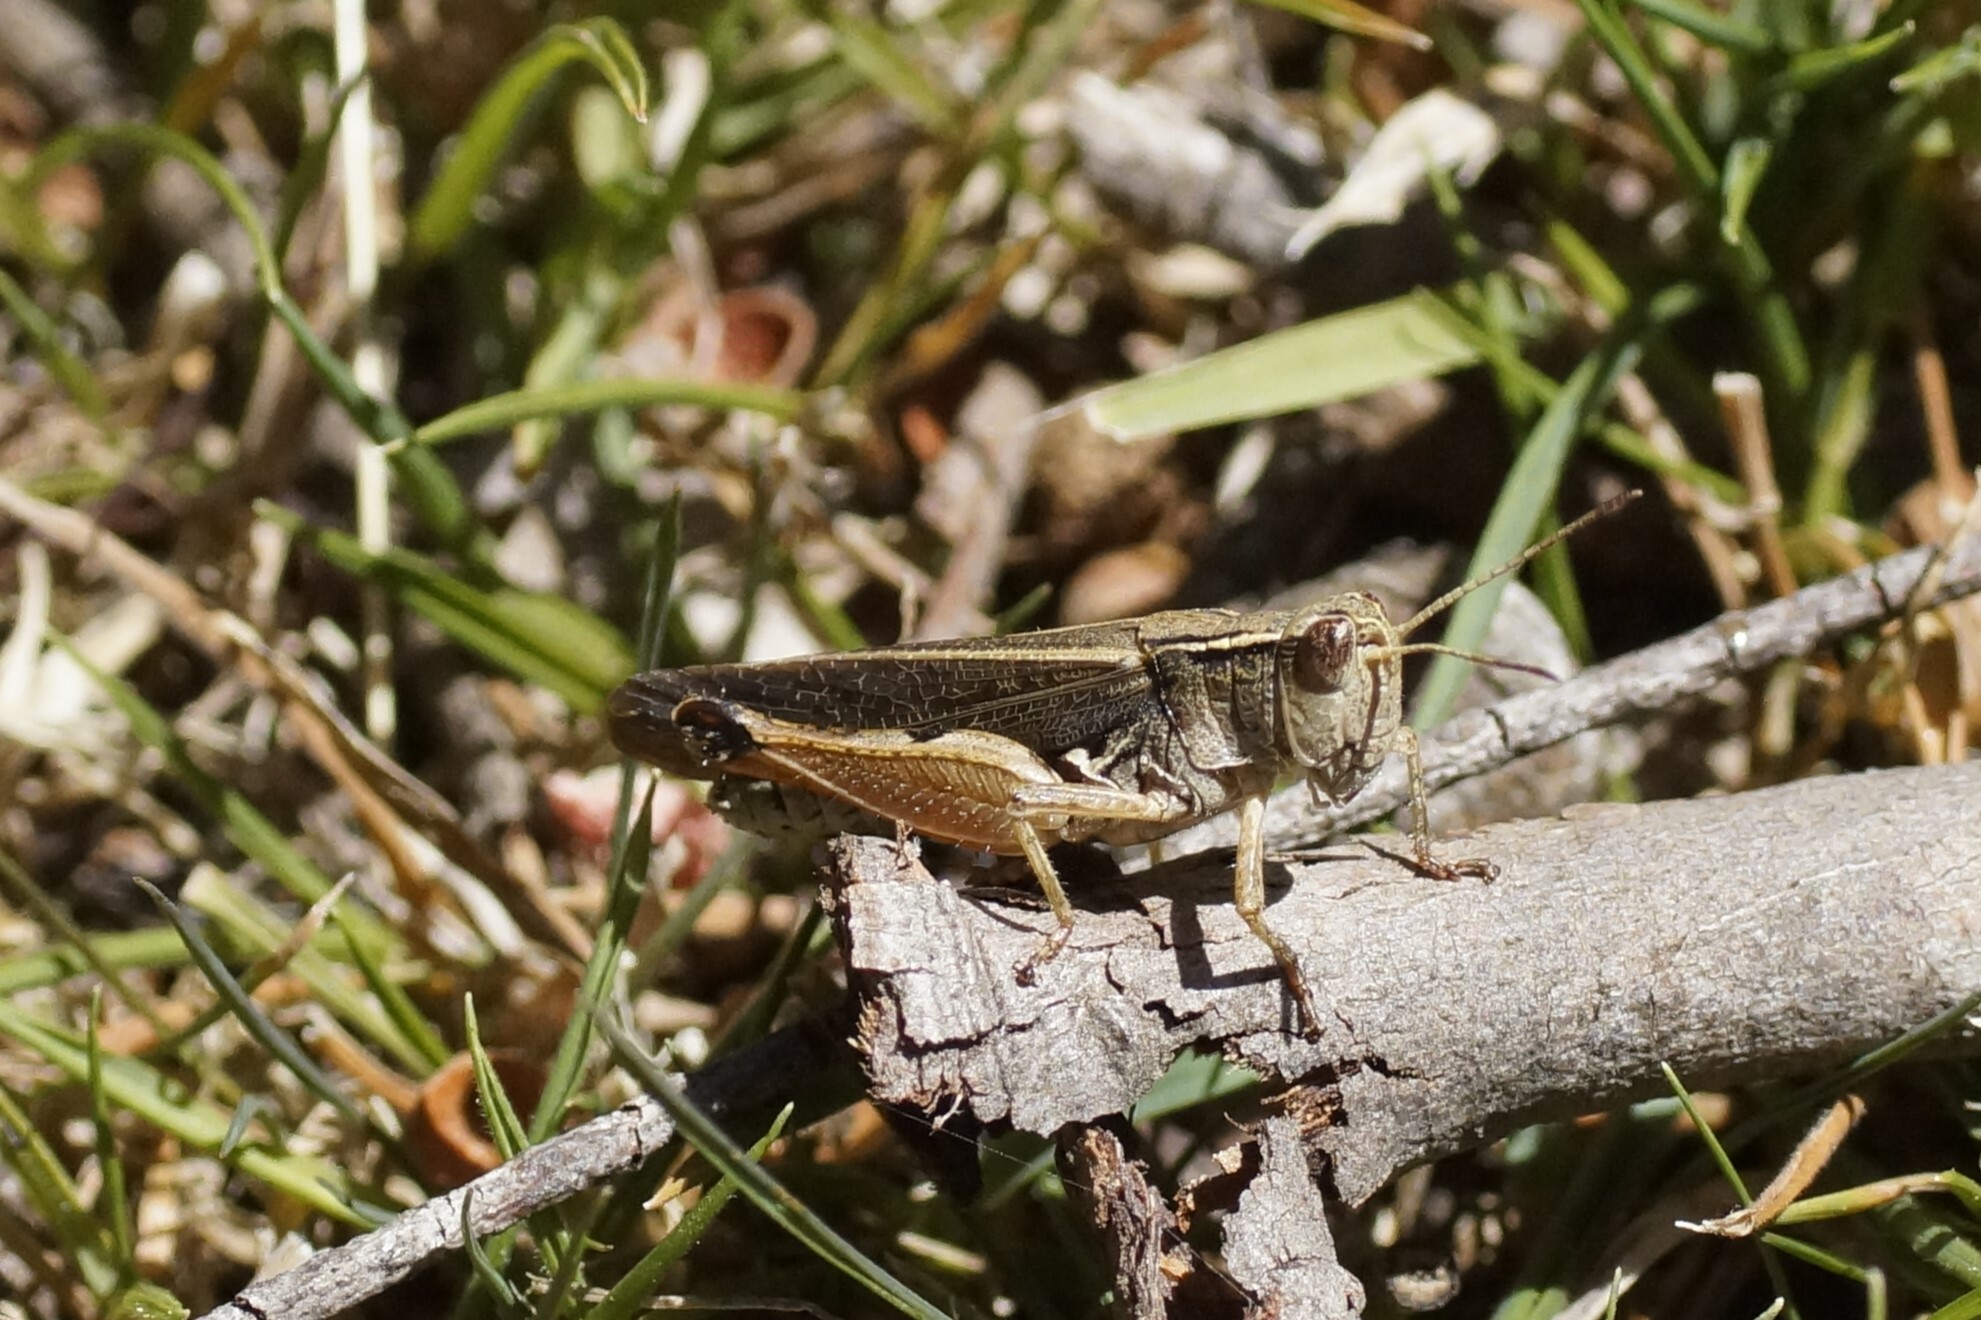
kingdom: Animalia
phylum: Arthropoda
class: Insecta
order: Orthoptera
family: Acrididae
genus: Phaulacridium
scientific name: Phaulacridium vittatum
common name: Wingless grasshopper
